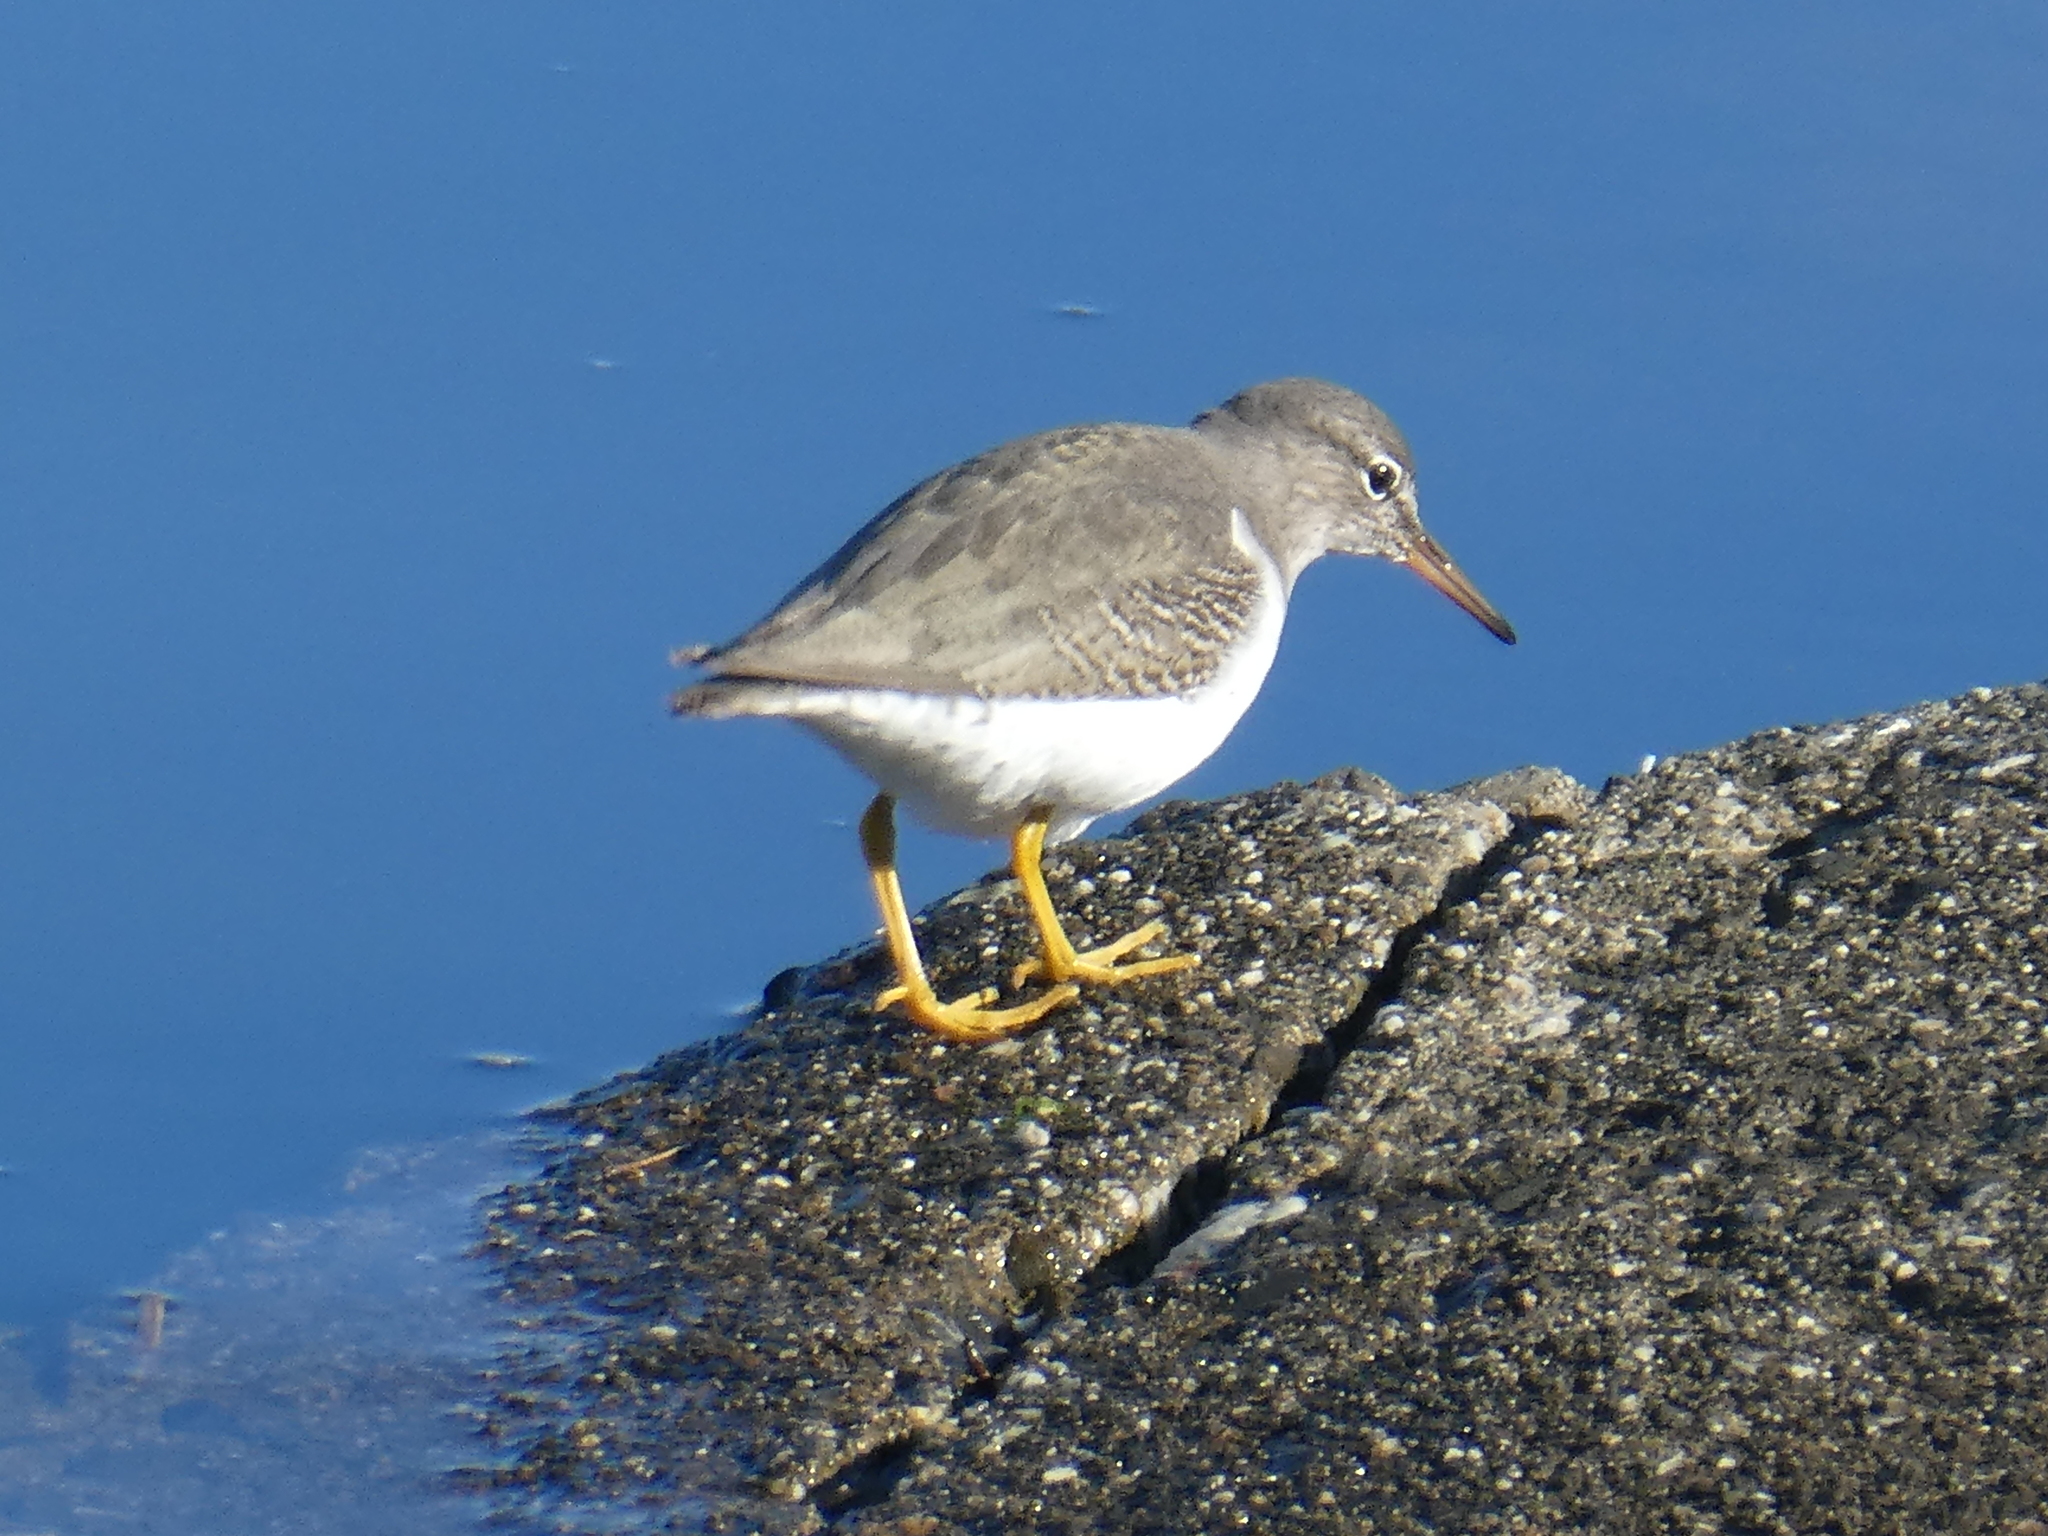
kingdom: Animalia
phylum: Chordata
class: Aves
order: Charadriiformes
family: Scolopacidae
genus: Actitis
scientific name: Actitis macularius
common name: Spotted sandpiper
